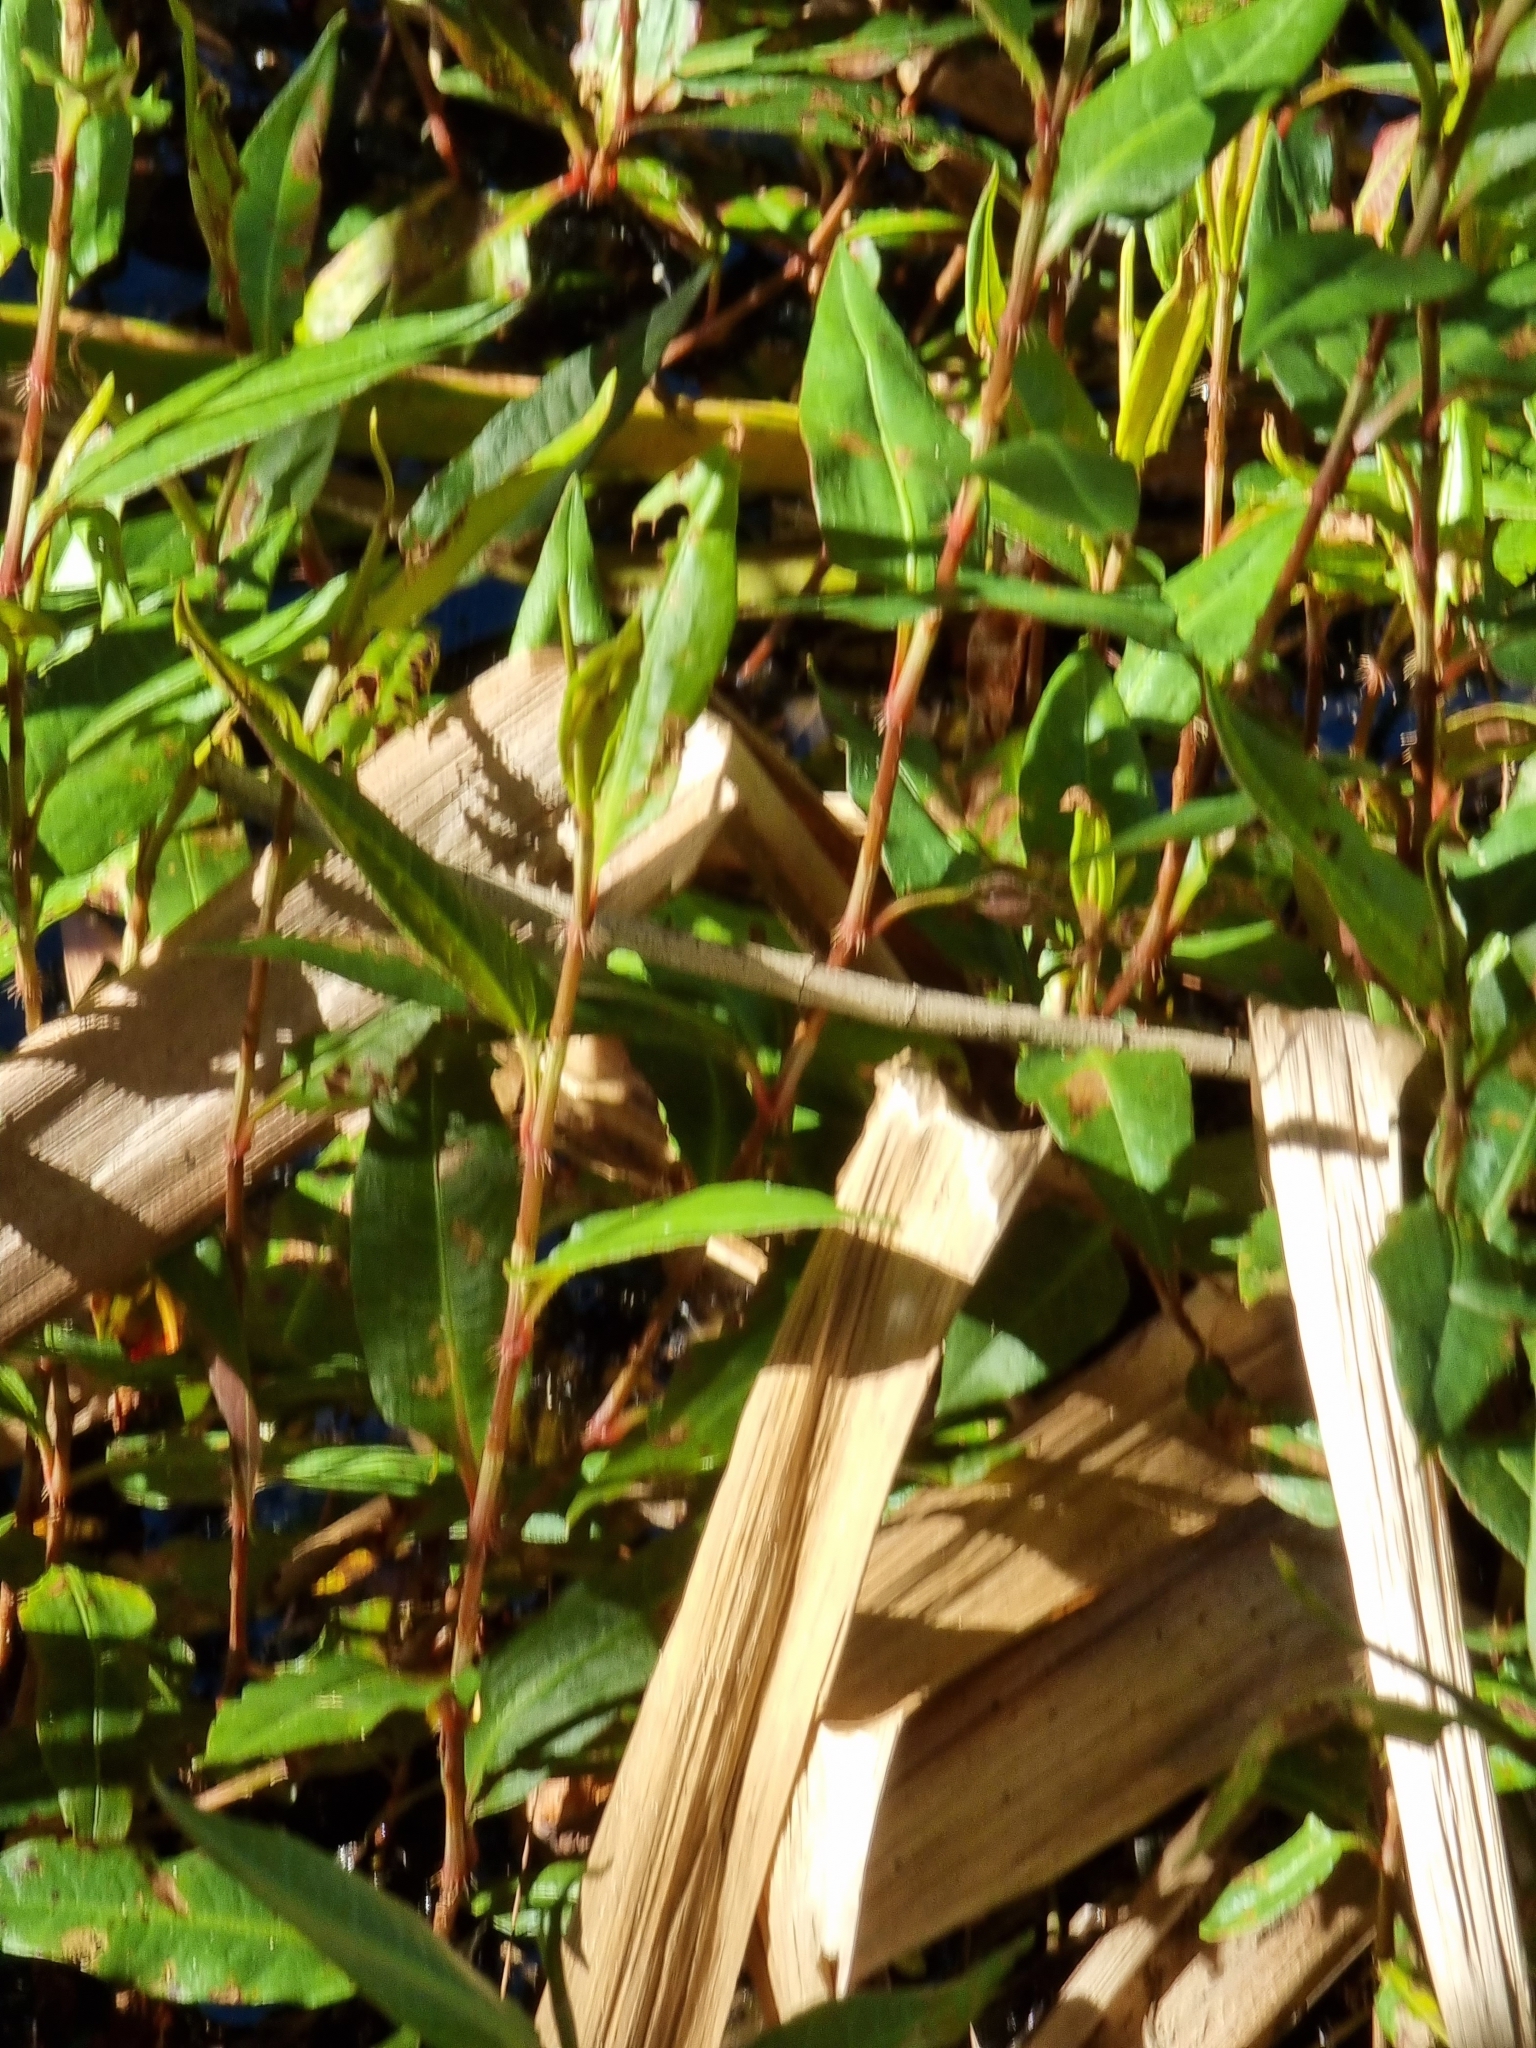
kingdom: Plantae
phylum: Tracheophyta
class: Magnoliopsida
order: Caryophyllales
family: Polygonaceae
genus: Persicaria
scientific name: Persicaria strigosa
